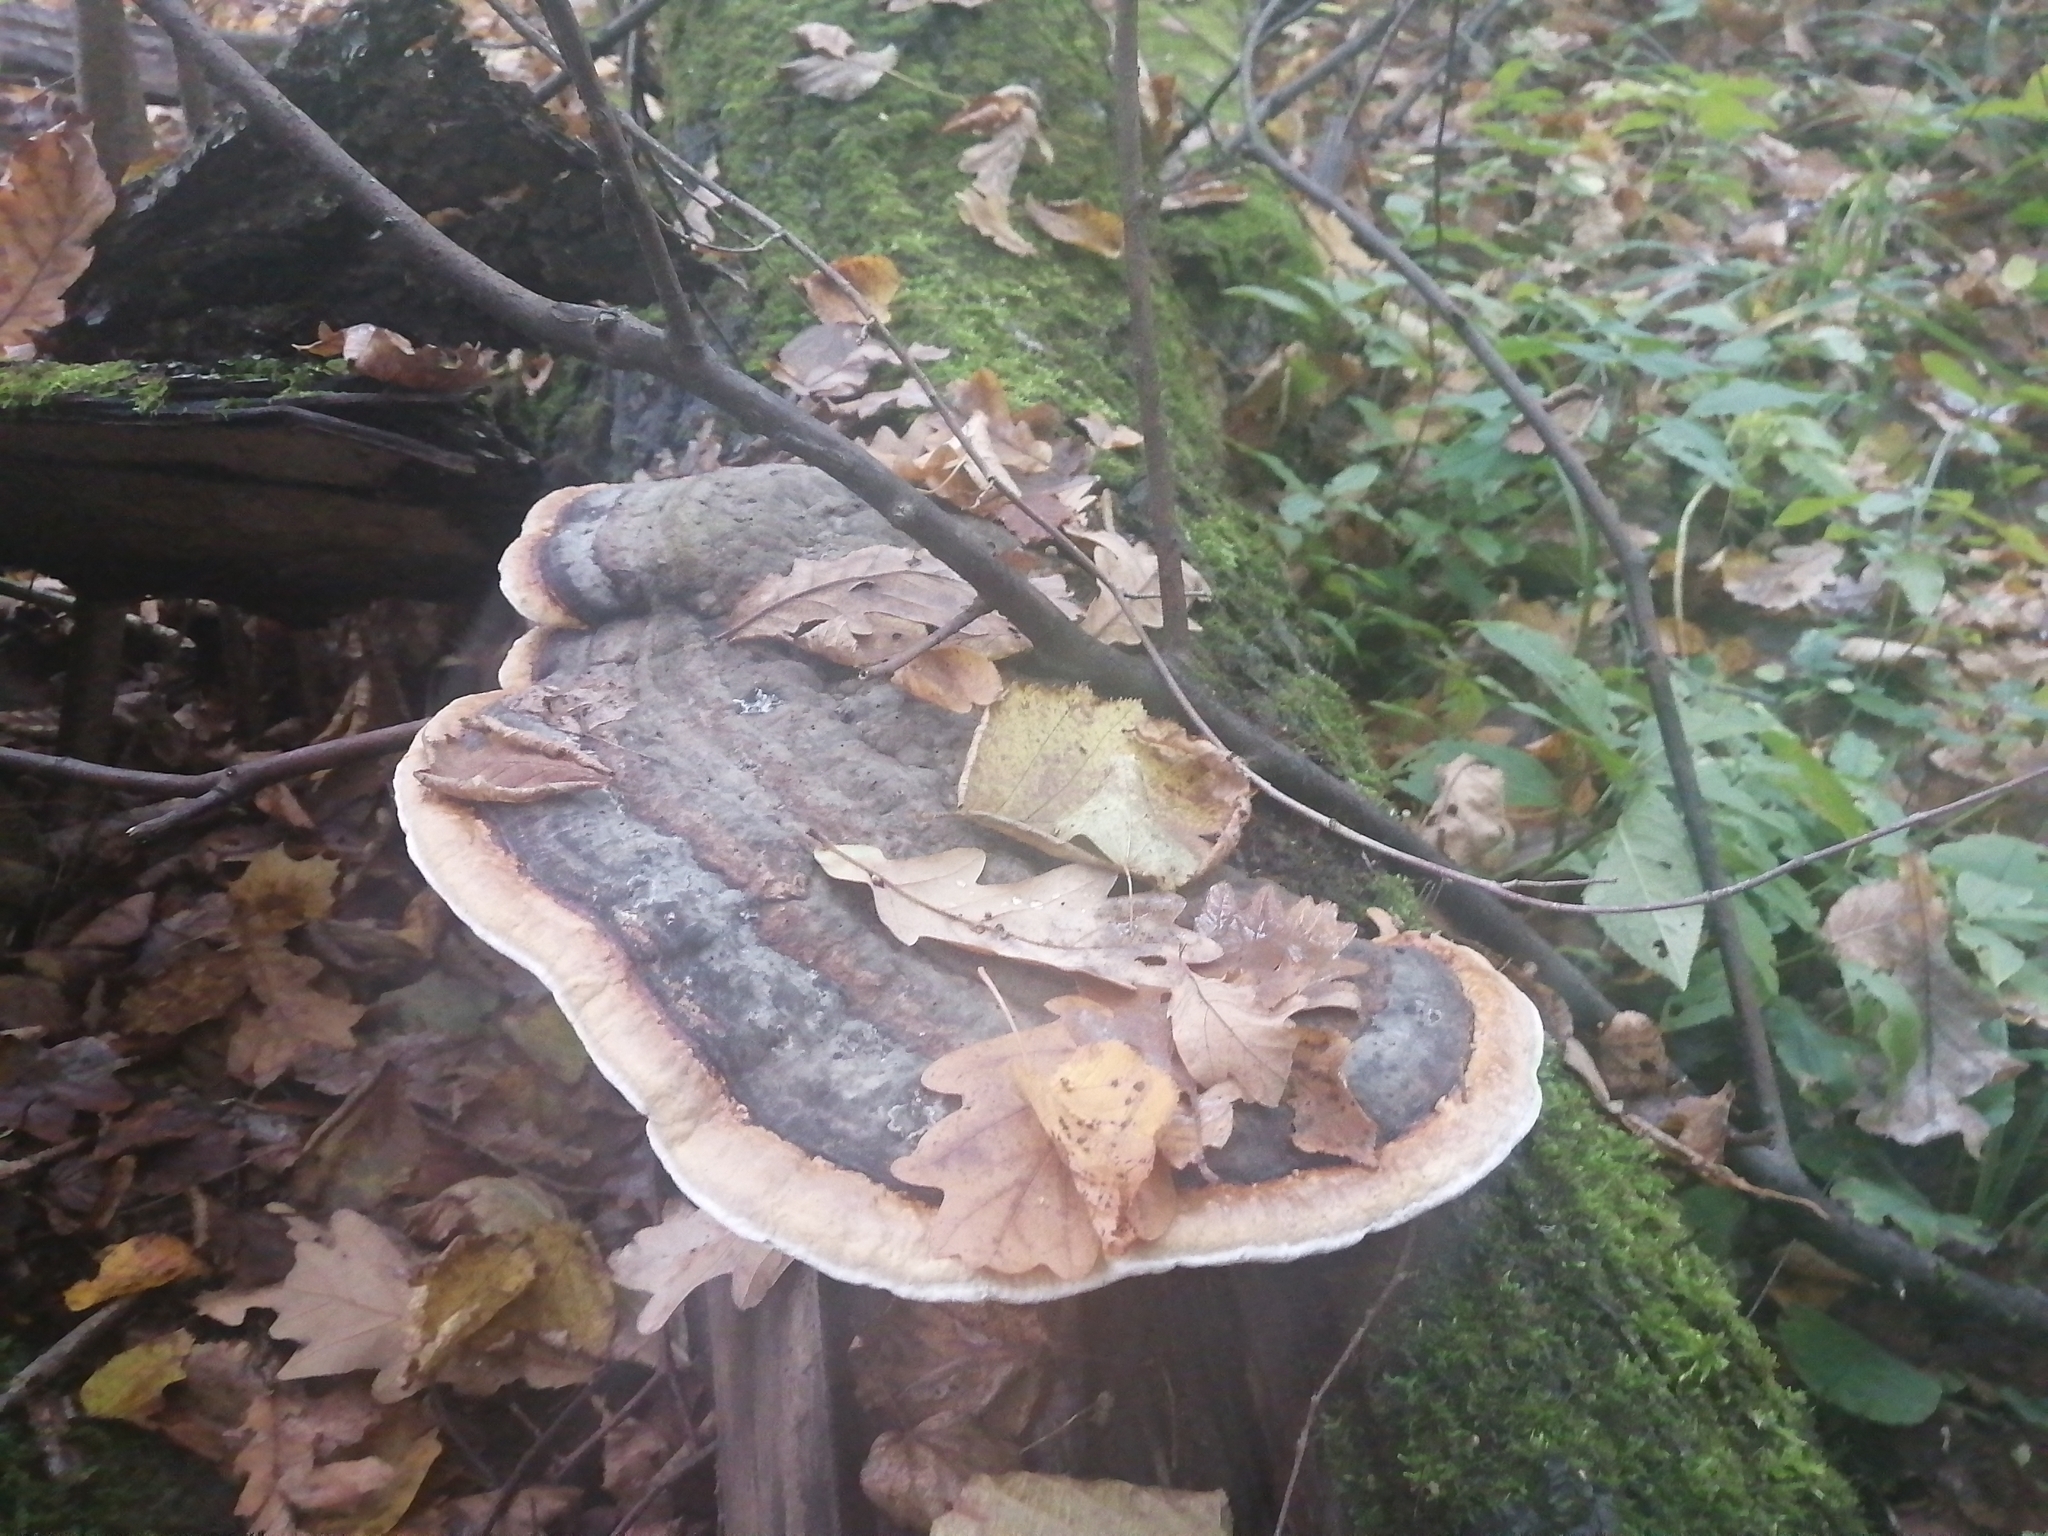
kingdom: Fungi
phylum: Basidiomycota
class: Agaricomycetes
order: Polyporales
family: Fomitopsidaceae
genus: Fomitopsis
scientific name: Fomitopsis pinicola
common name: Red-belted bracket
